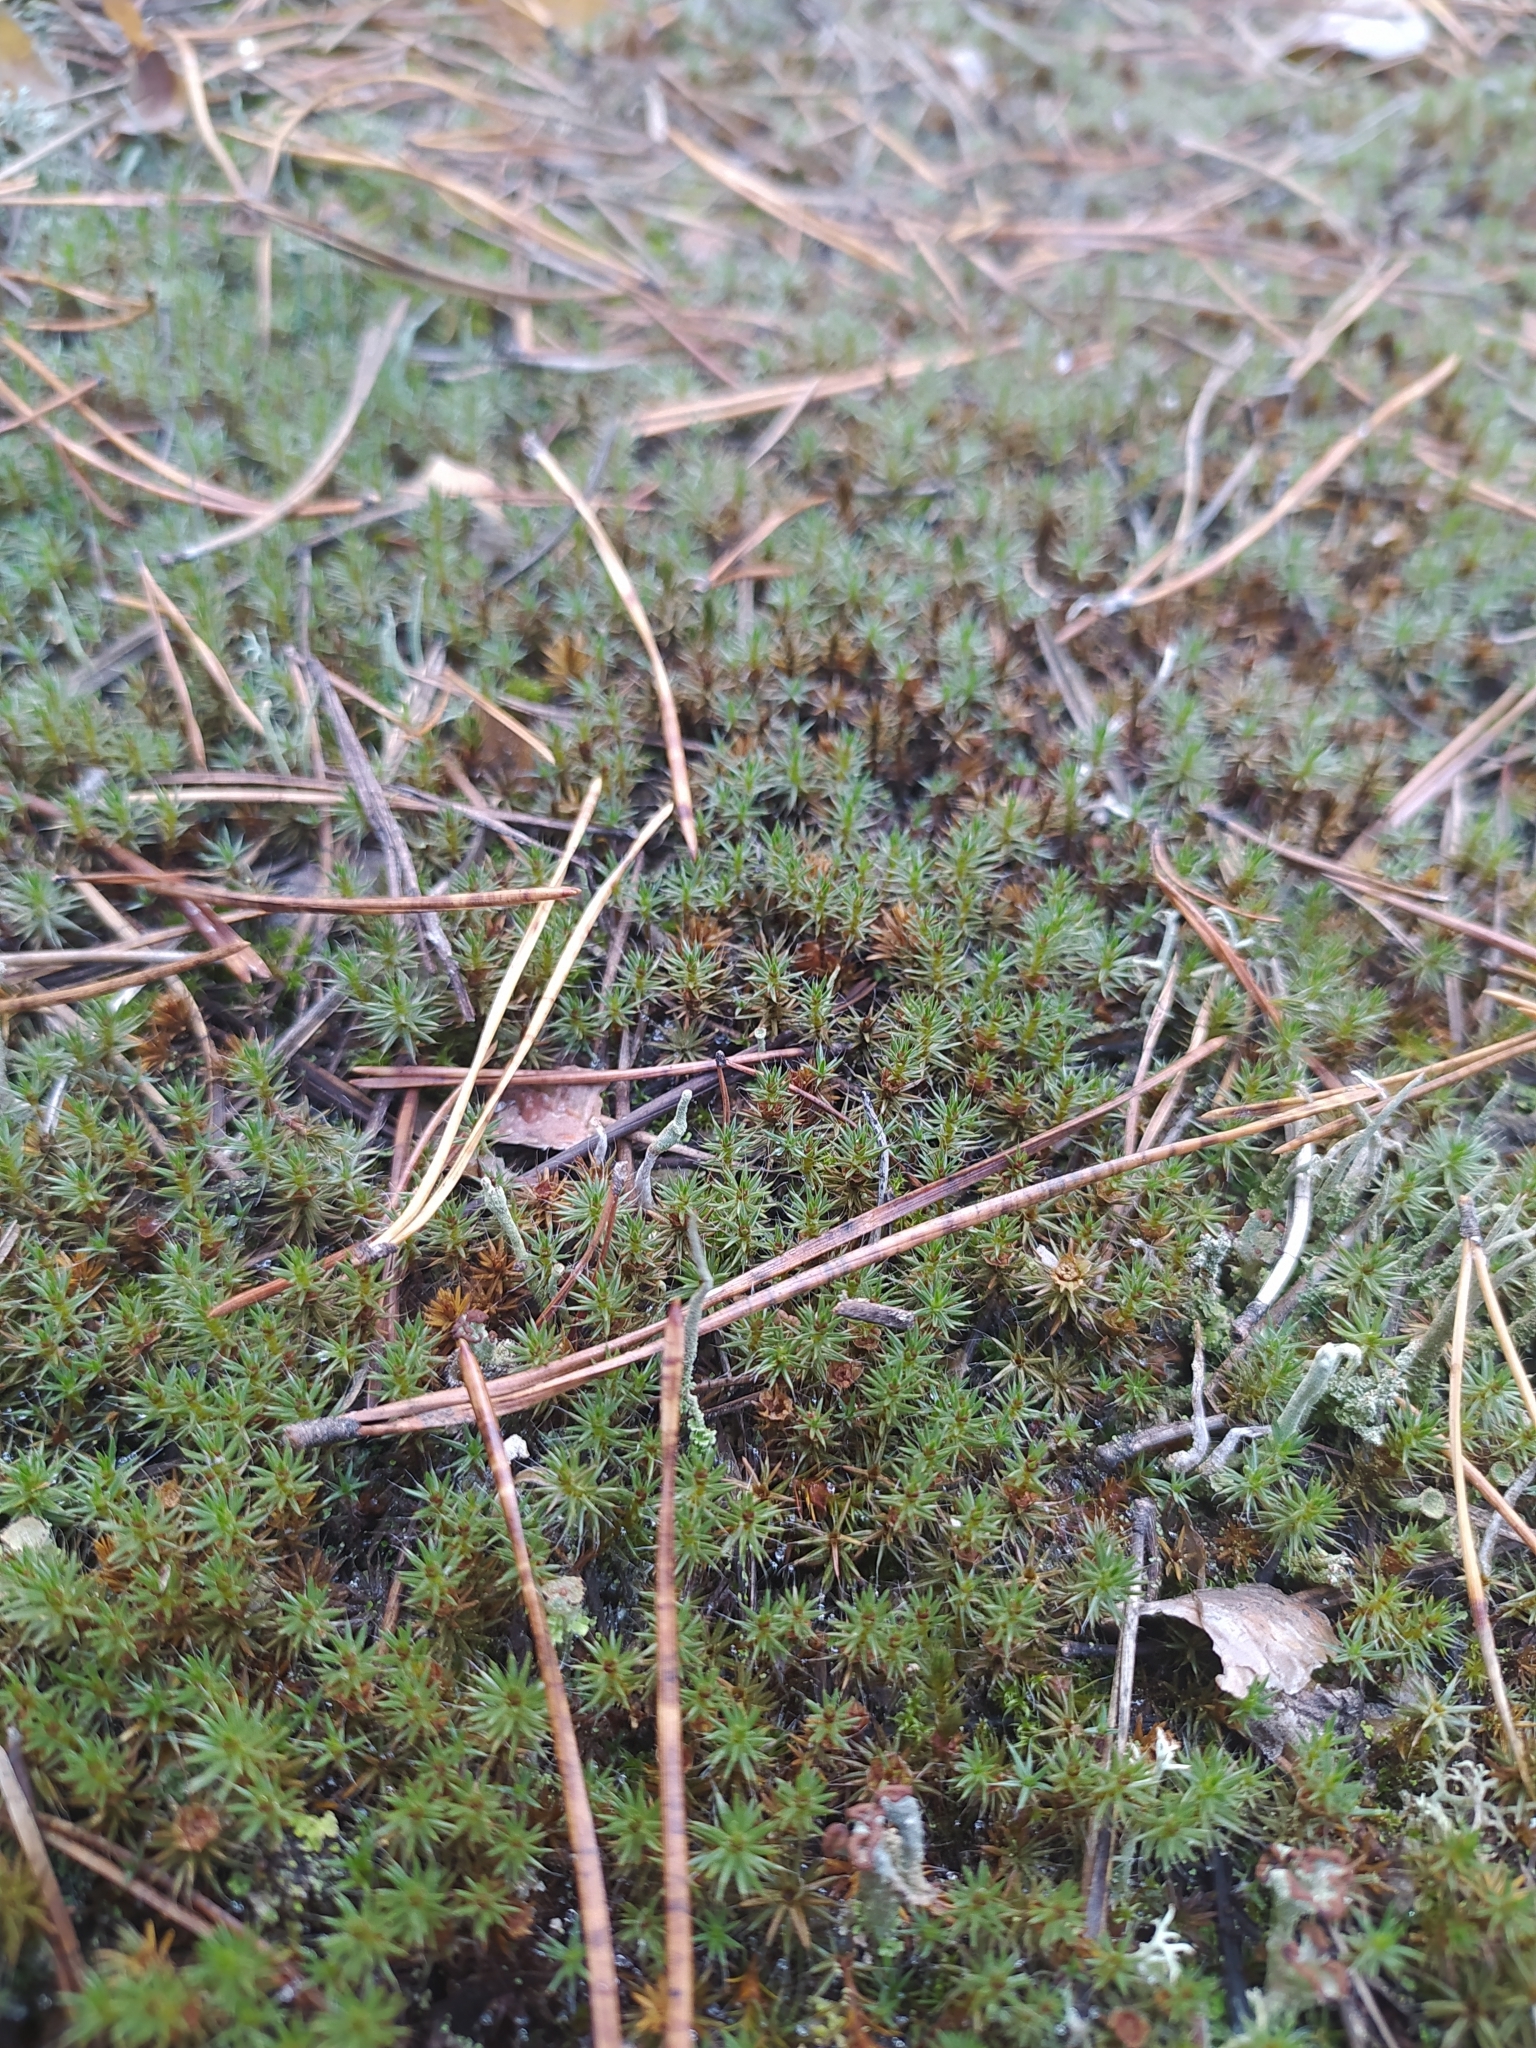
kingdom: Plantae
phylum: Bryophyta
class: Polytrichopsida
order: Polytrichales
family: Polytrichaceae
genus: Polytrichum
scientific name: Polytrichum piliferum
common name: Bristly haircap
